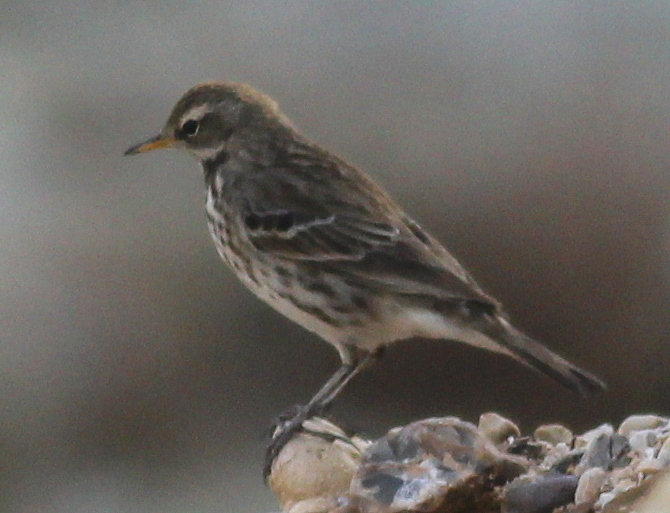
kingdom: Animalia
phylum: Chordata
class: Aves
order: Passeriformes
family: Motacillidae
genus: Anthus
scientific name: Anthus spinoletta
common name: Water pipit
